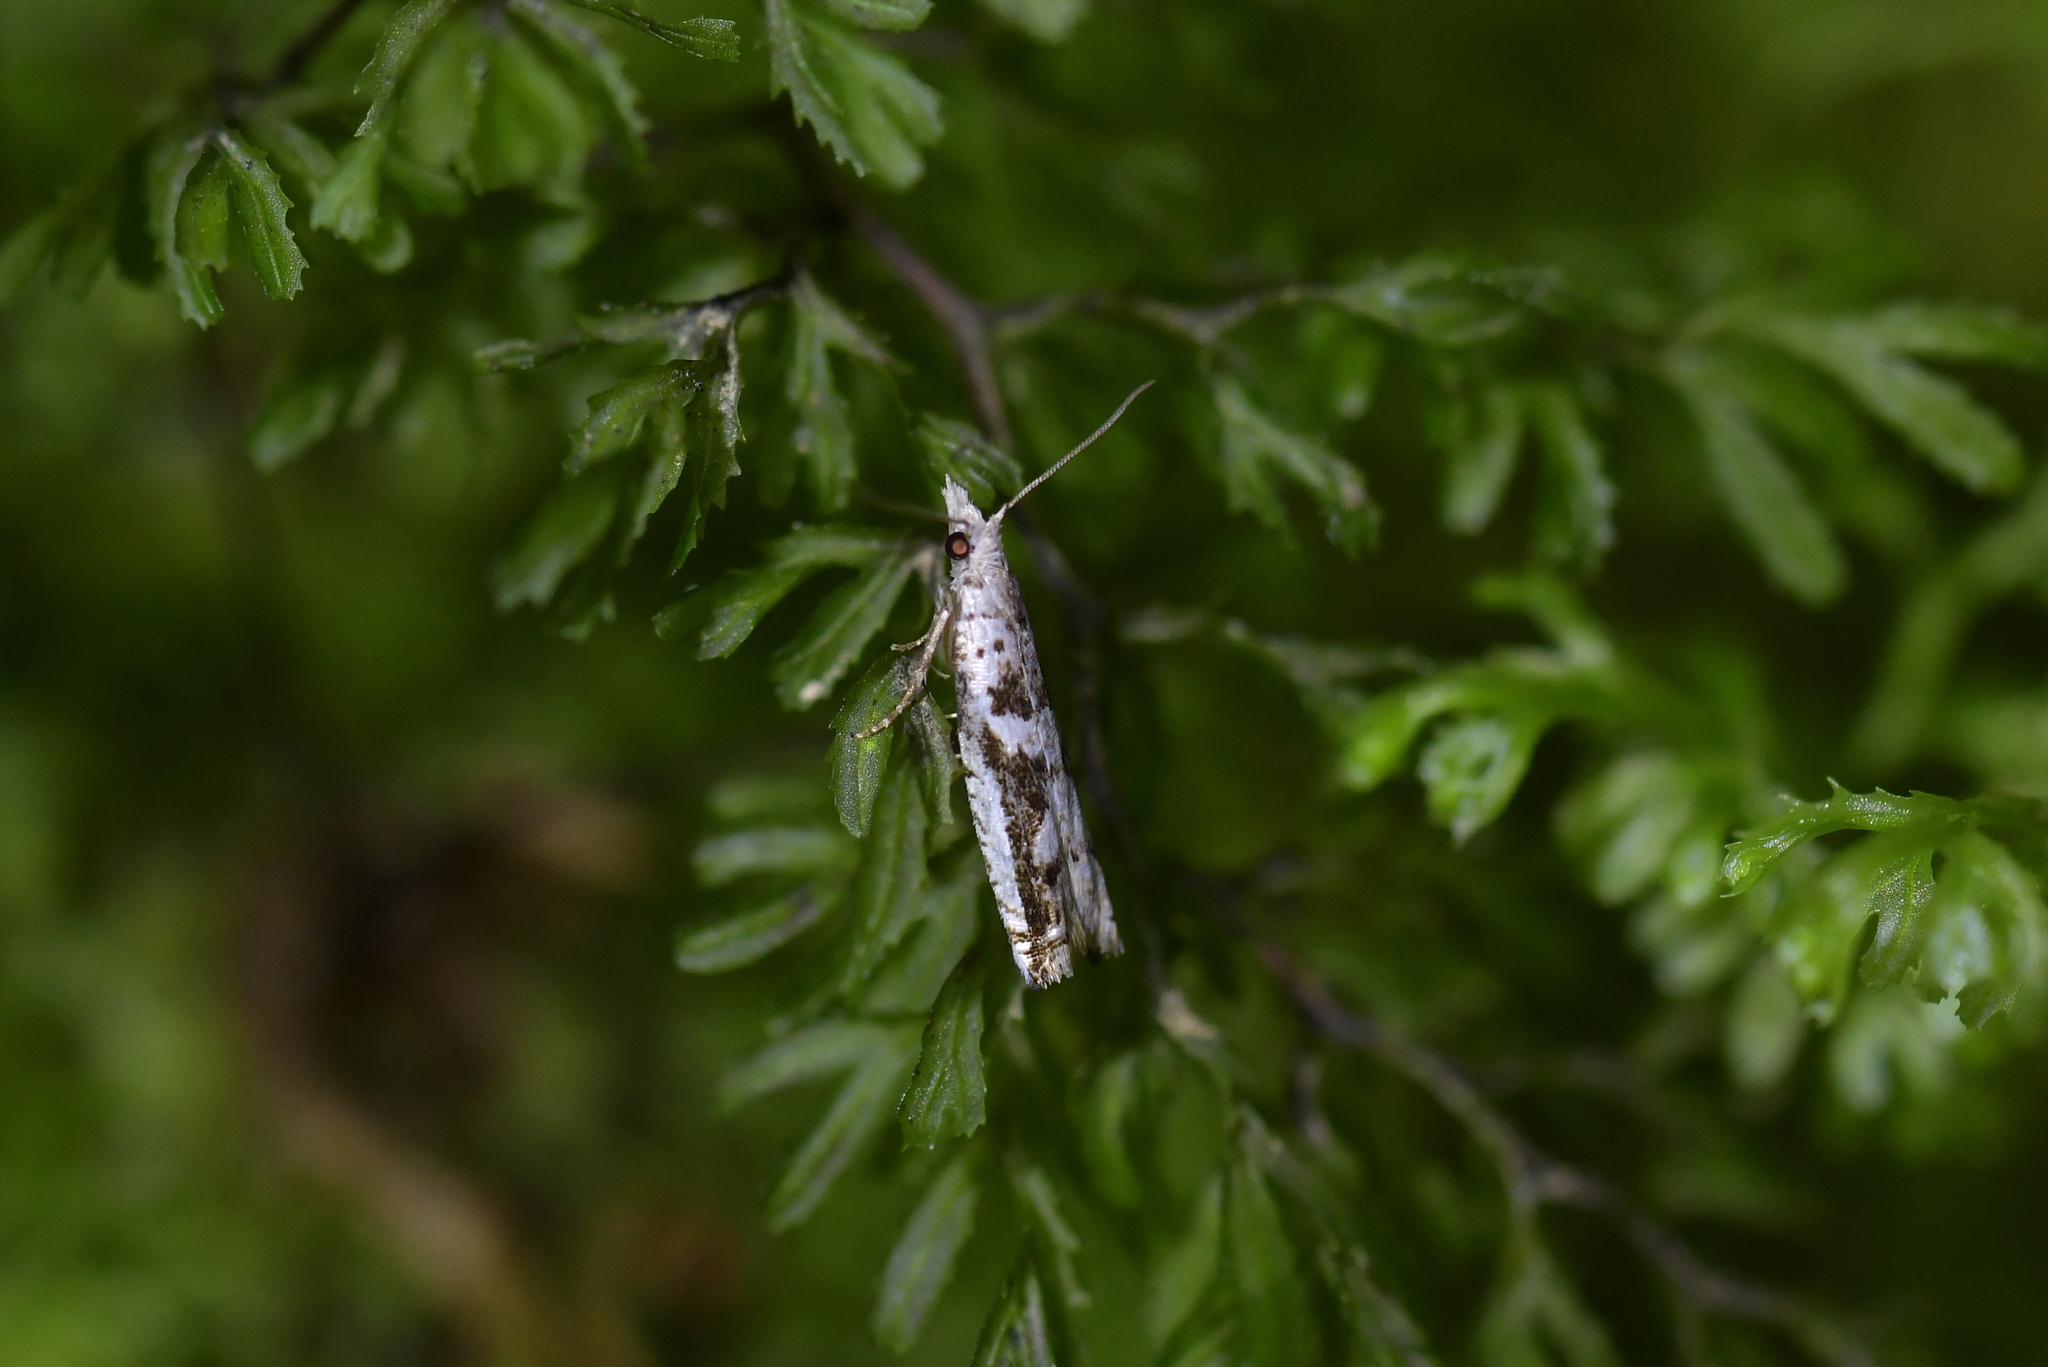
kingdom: Animalia
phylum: Arthropoda
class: Insecta
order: Lepidoptera
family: Tortricidae
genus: Holocola
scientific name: Holocola zopherana
